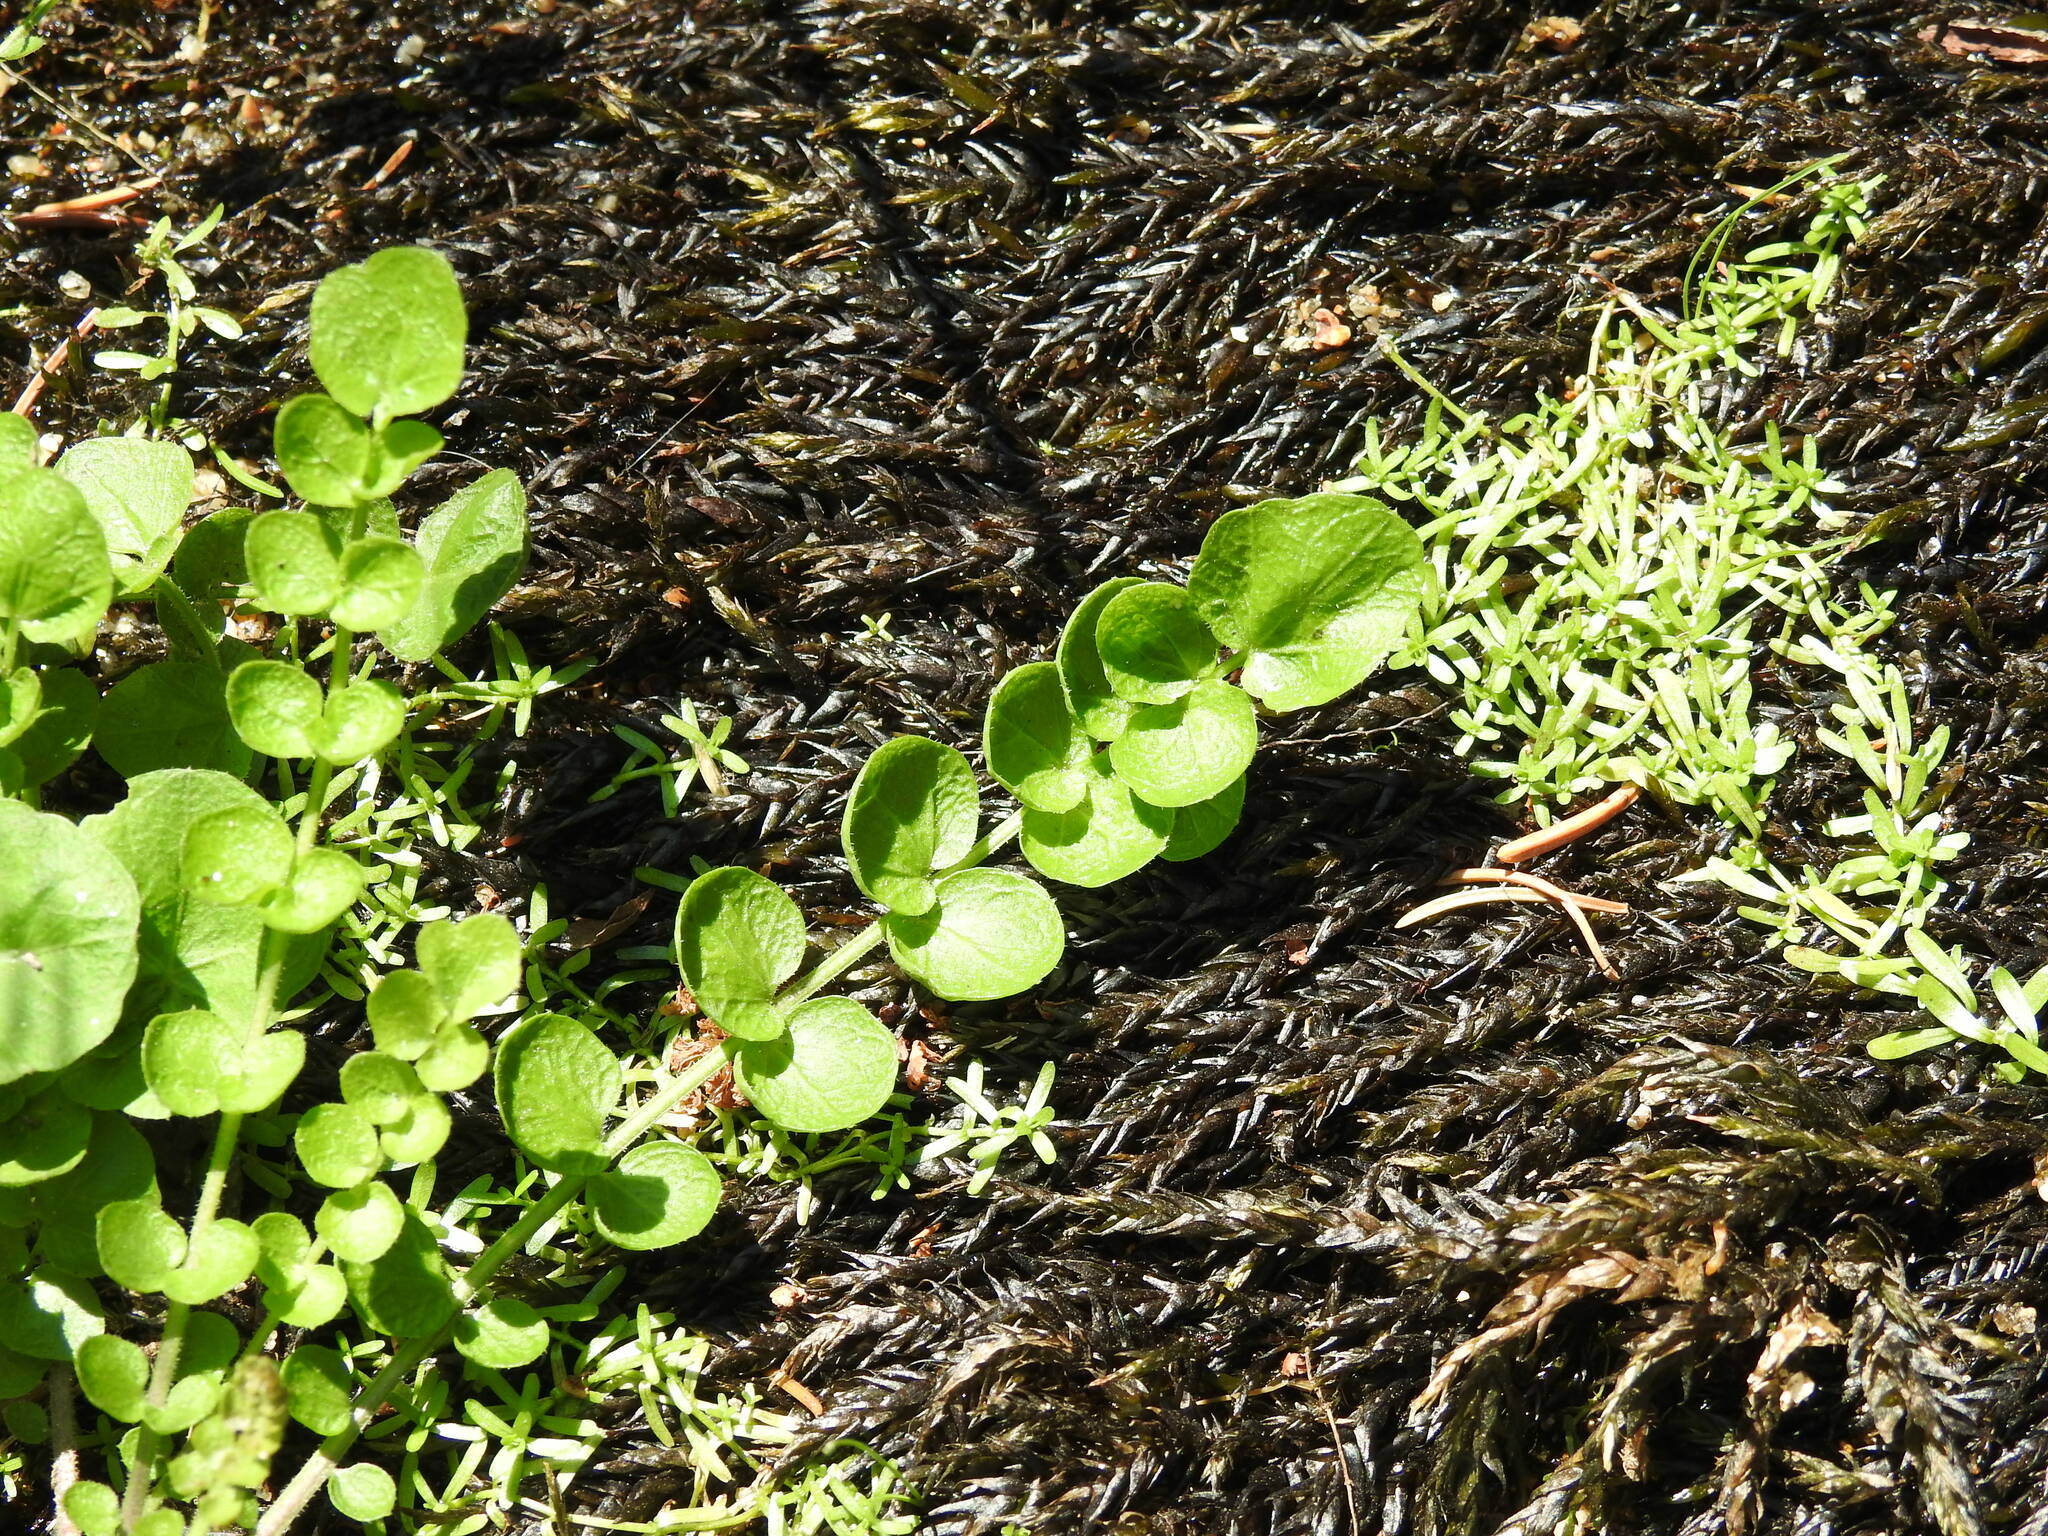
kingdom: Plantae
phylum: Tracheophyta
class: Magnoliopsida
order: Ericales
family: Primulaceae
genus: Lysimachia
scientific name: Lysimachia nummularia
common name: Moneywort
